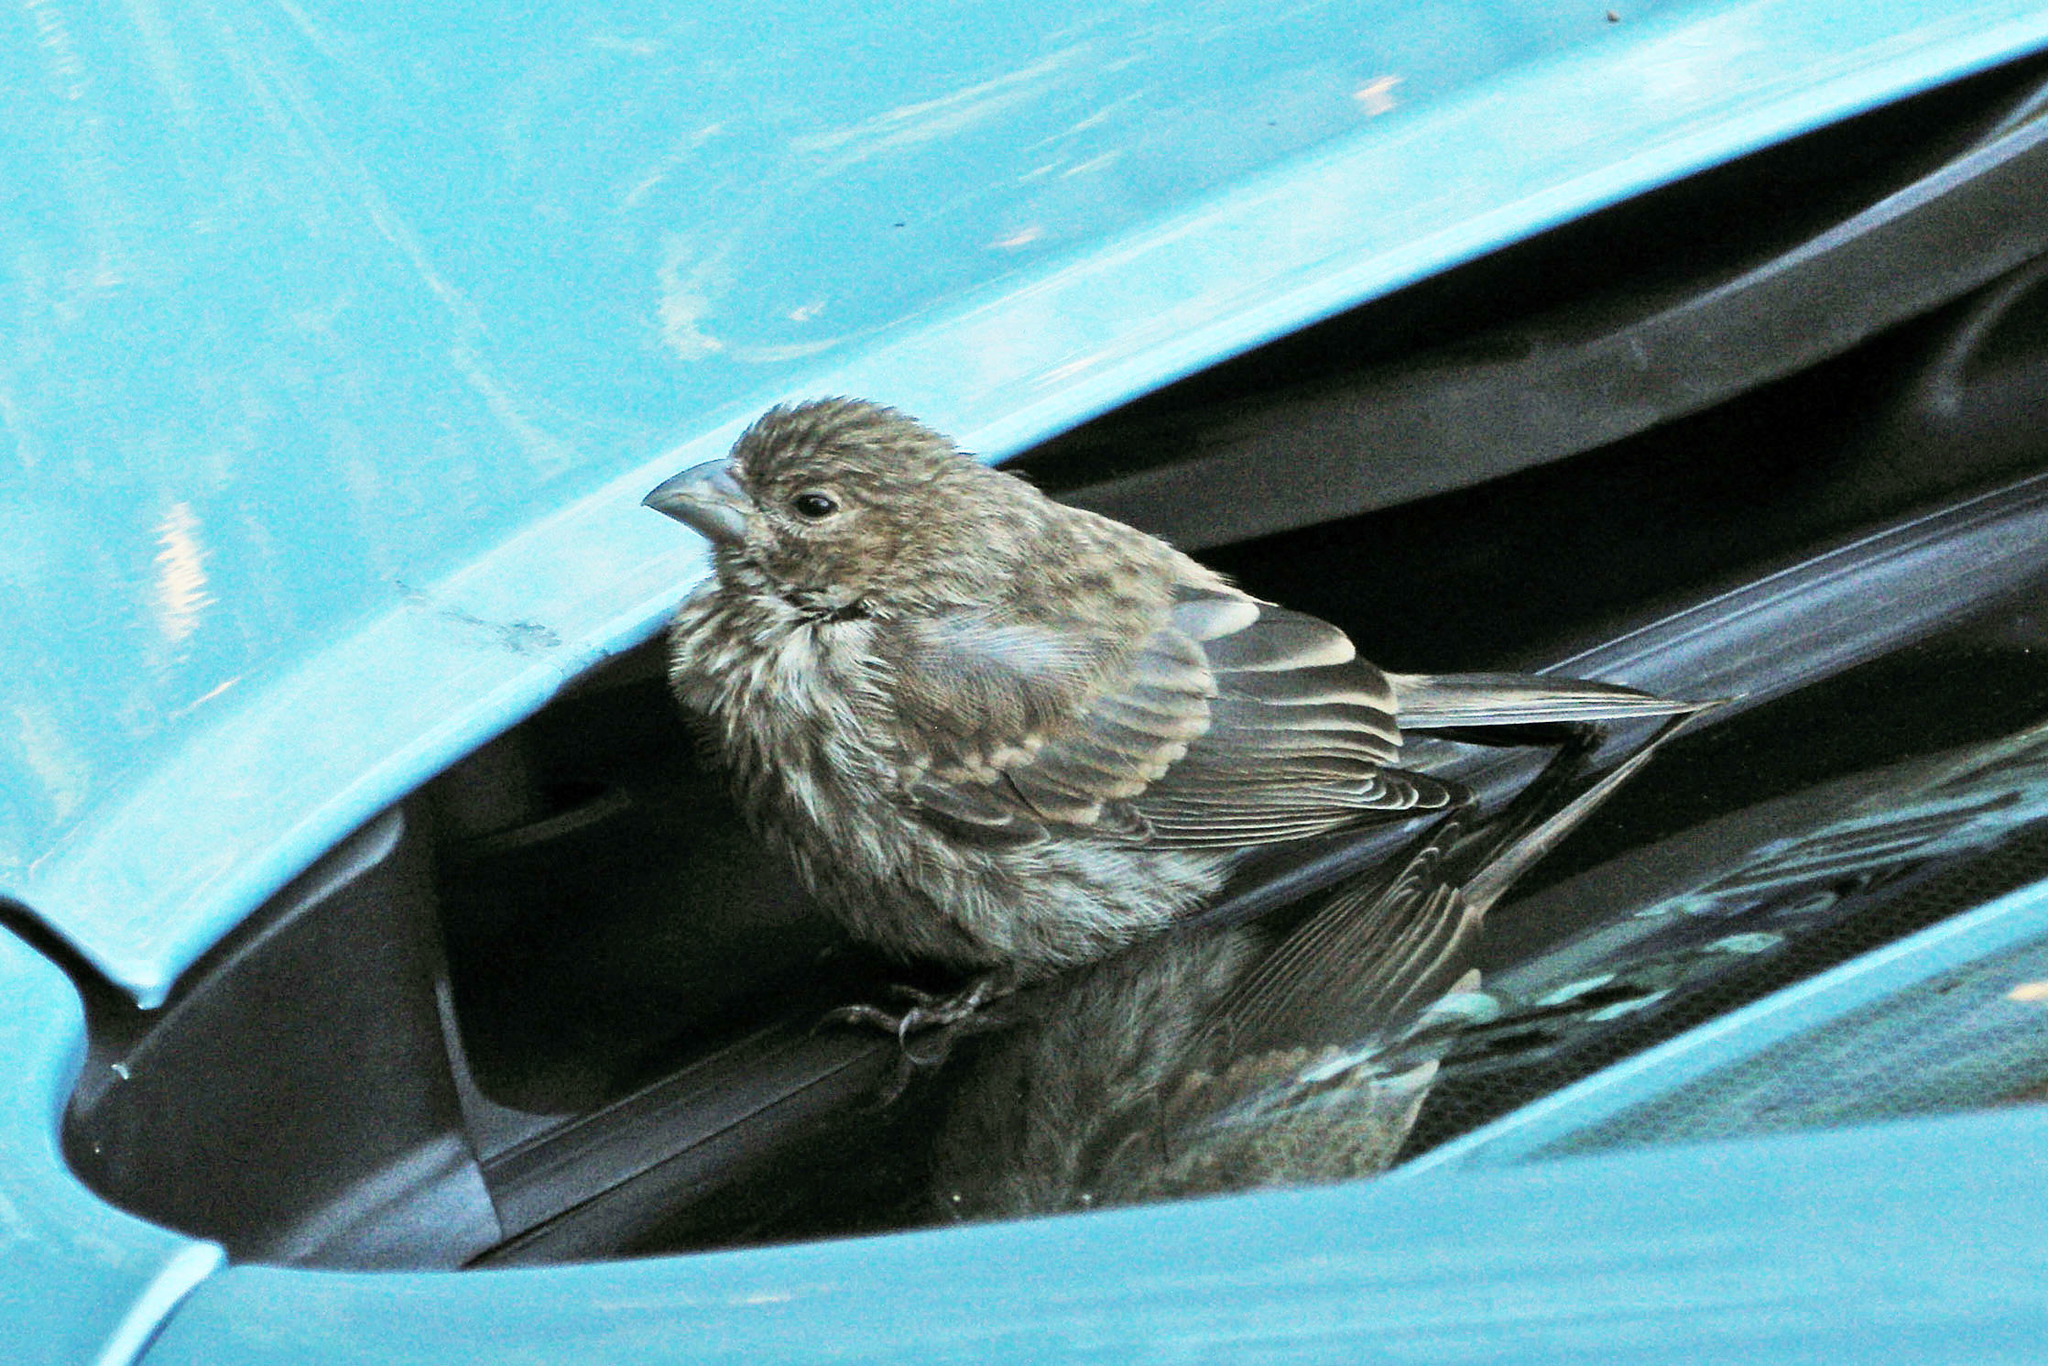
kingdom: Animalia
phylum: Chordata
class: Aves
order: Passeriformes
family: Fringillidae
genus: Haemorhous
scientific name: Haemorhous mexicanus
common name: House finch
